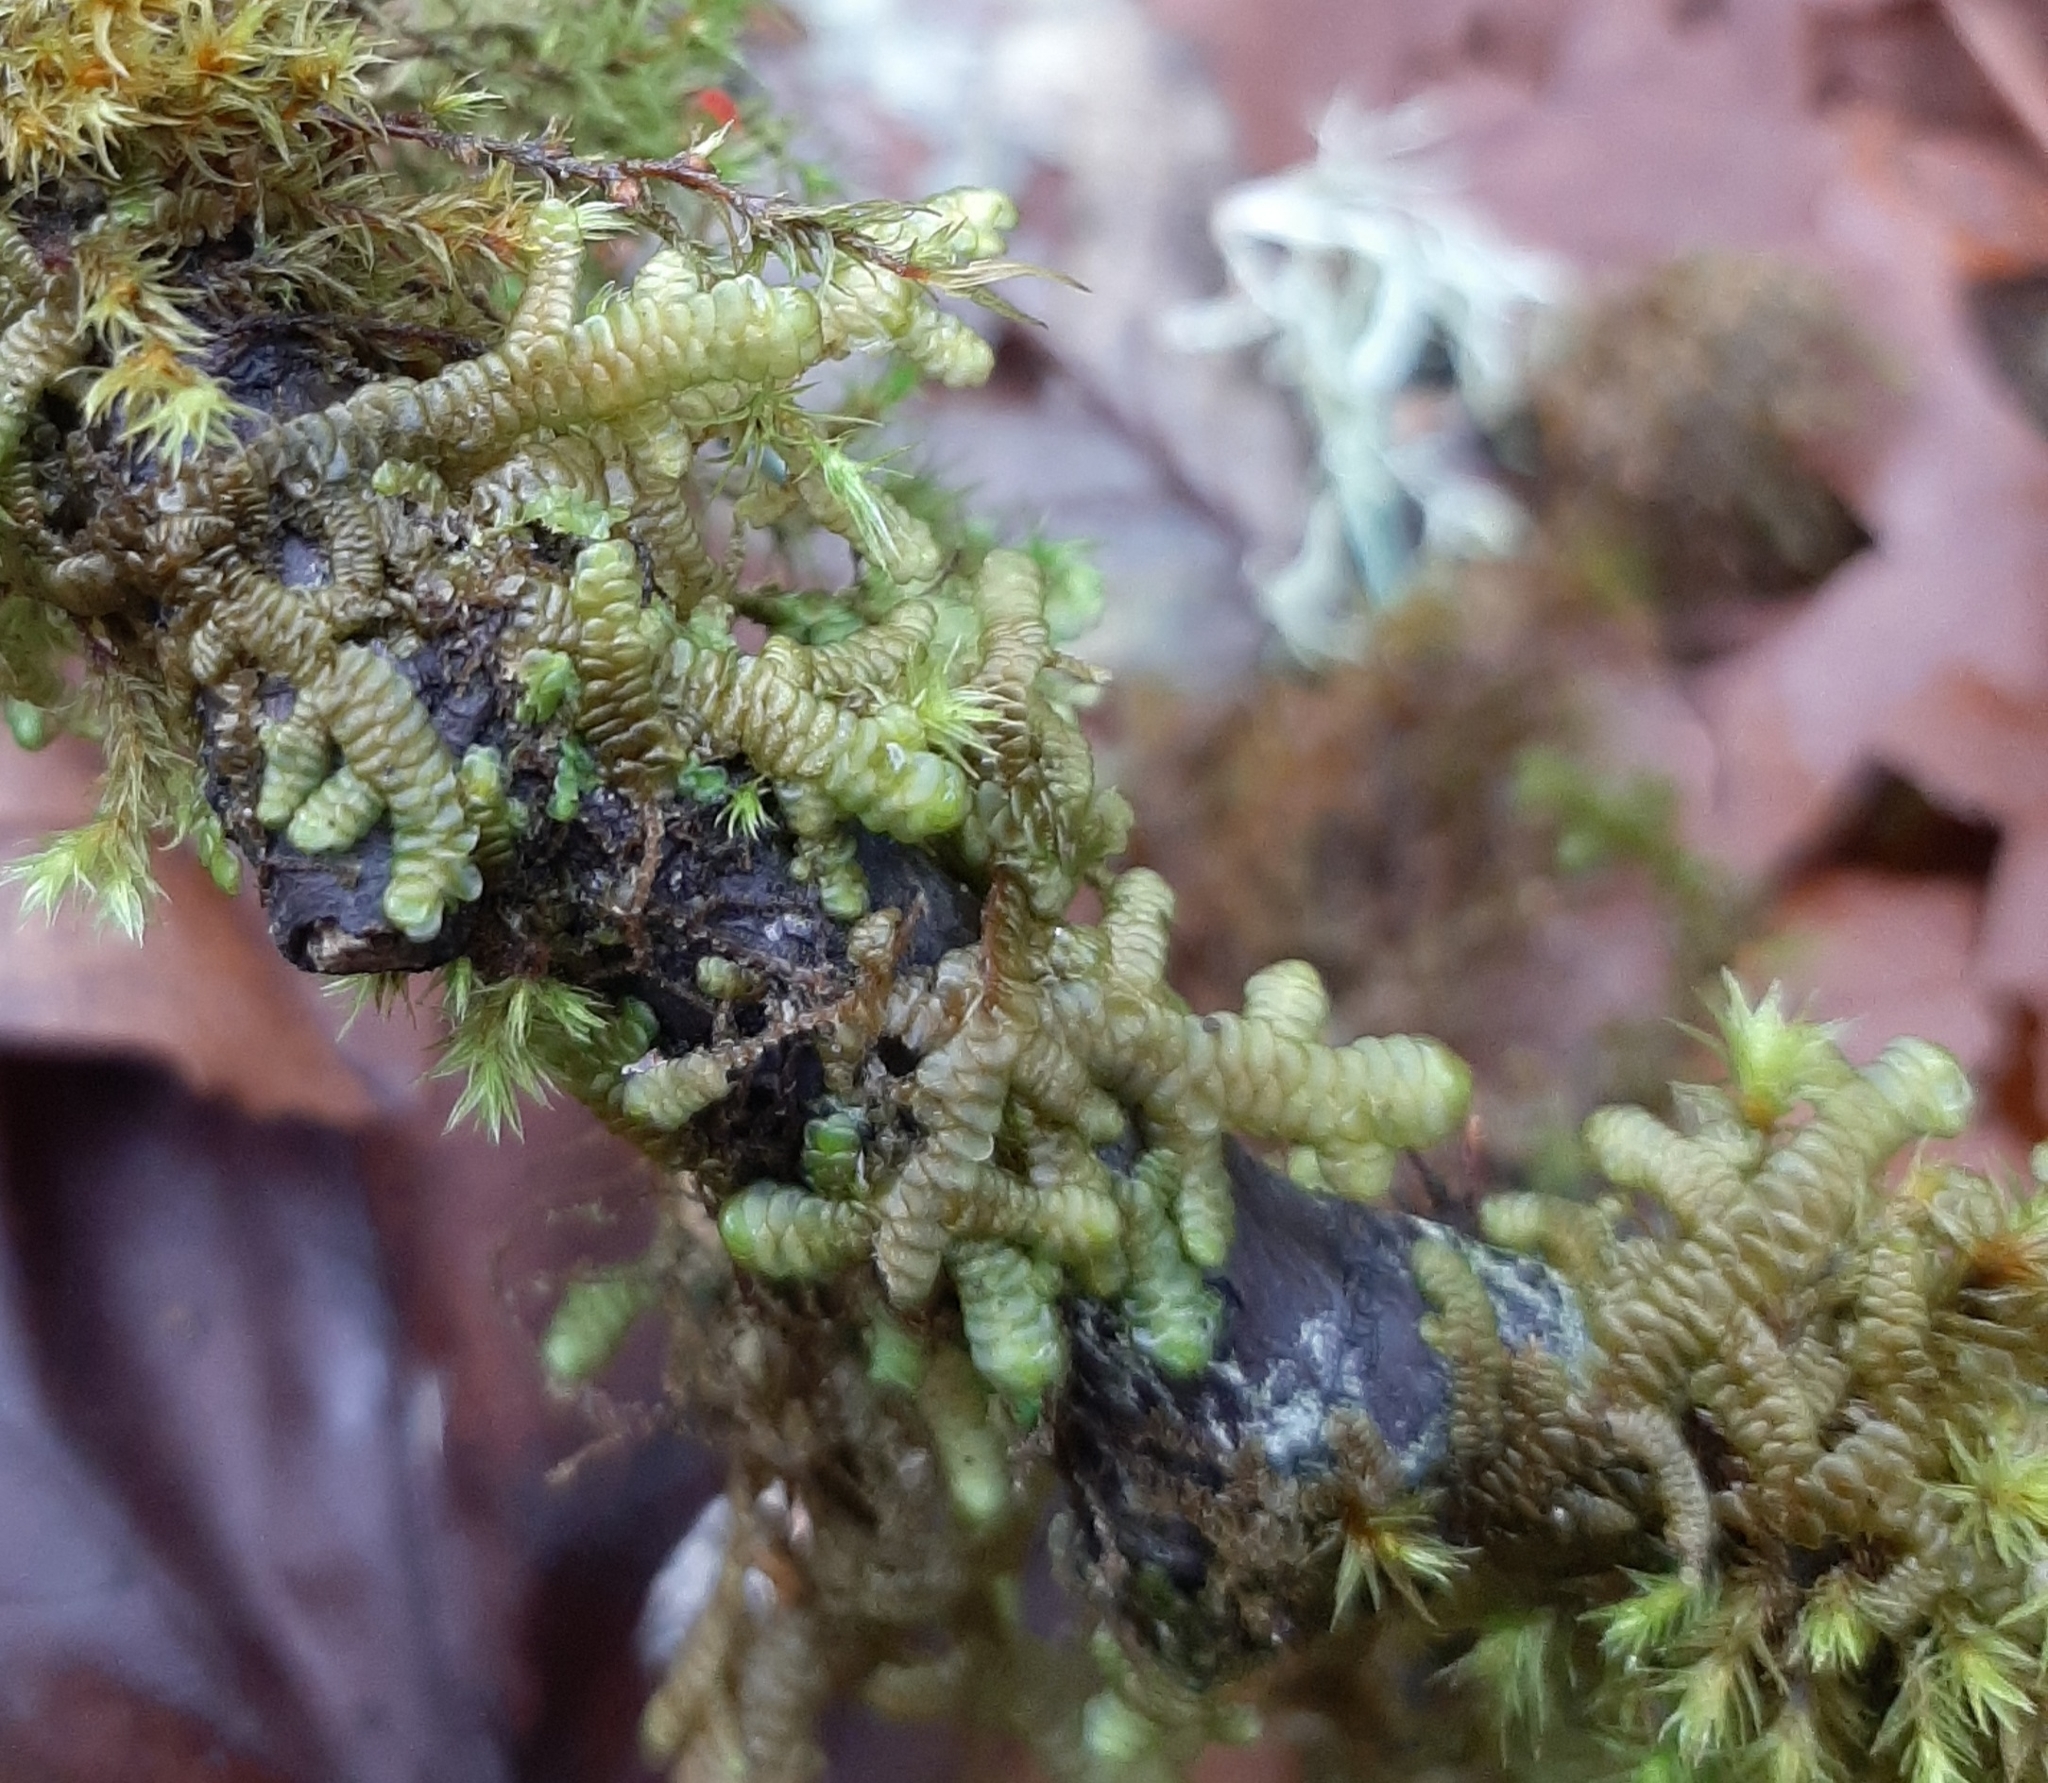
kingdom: Plantae
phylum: Marchantiophyta
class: Jungermanniopsida
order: Porellales
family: Porellaceae
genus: Porella
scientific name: Porella navicularis
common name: Tree ruffle liverwort
